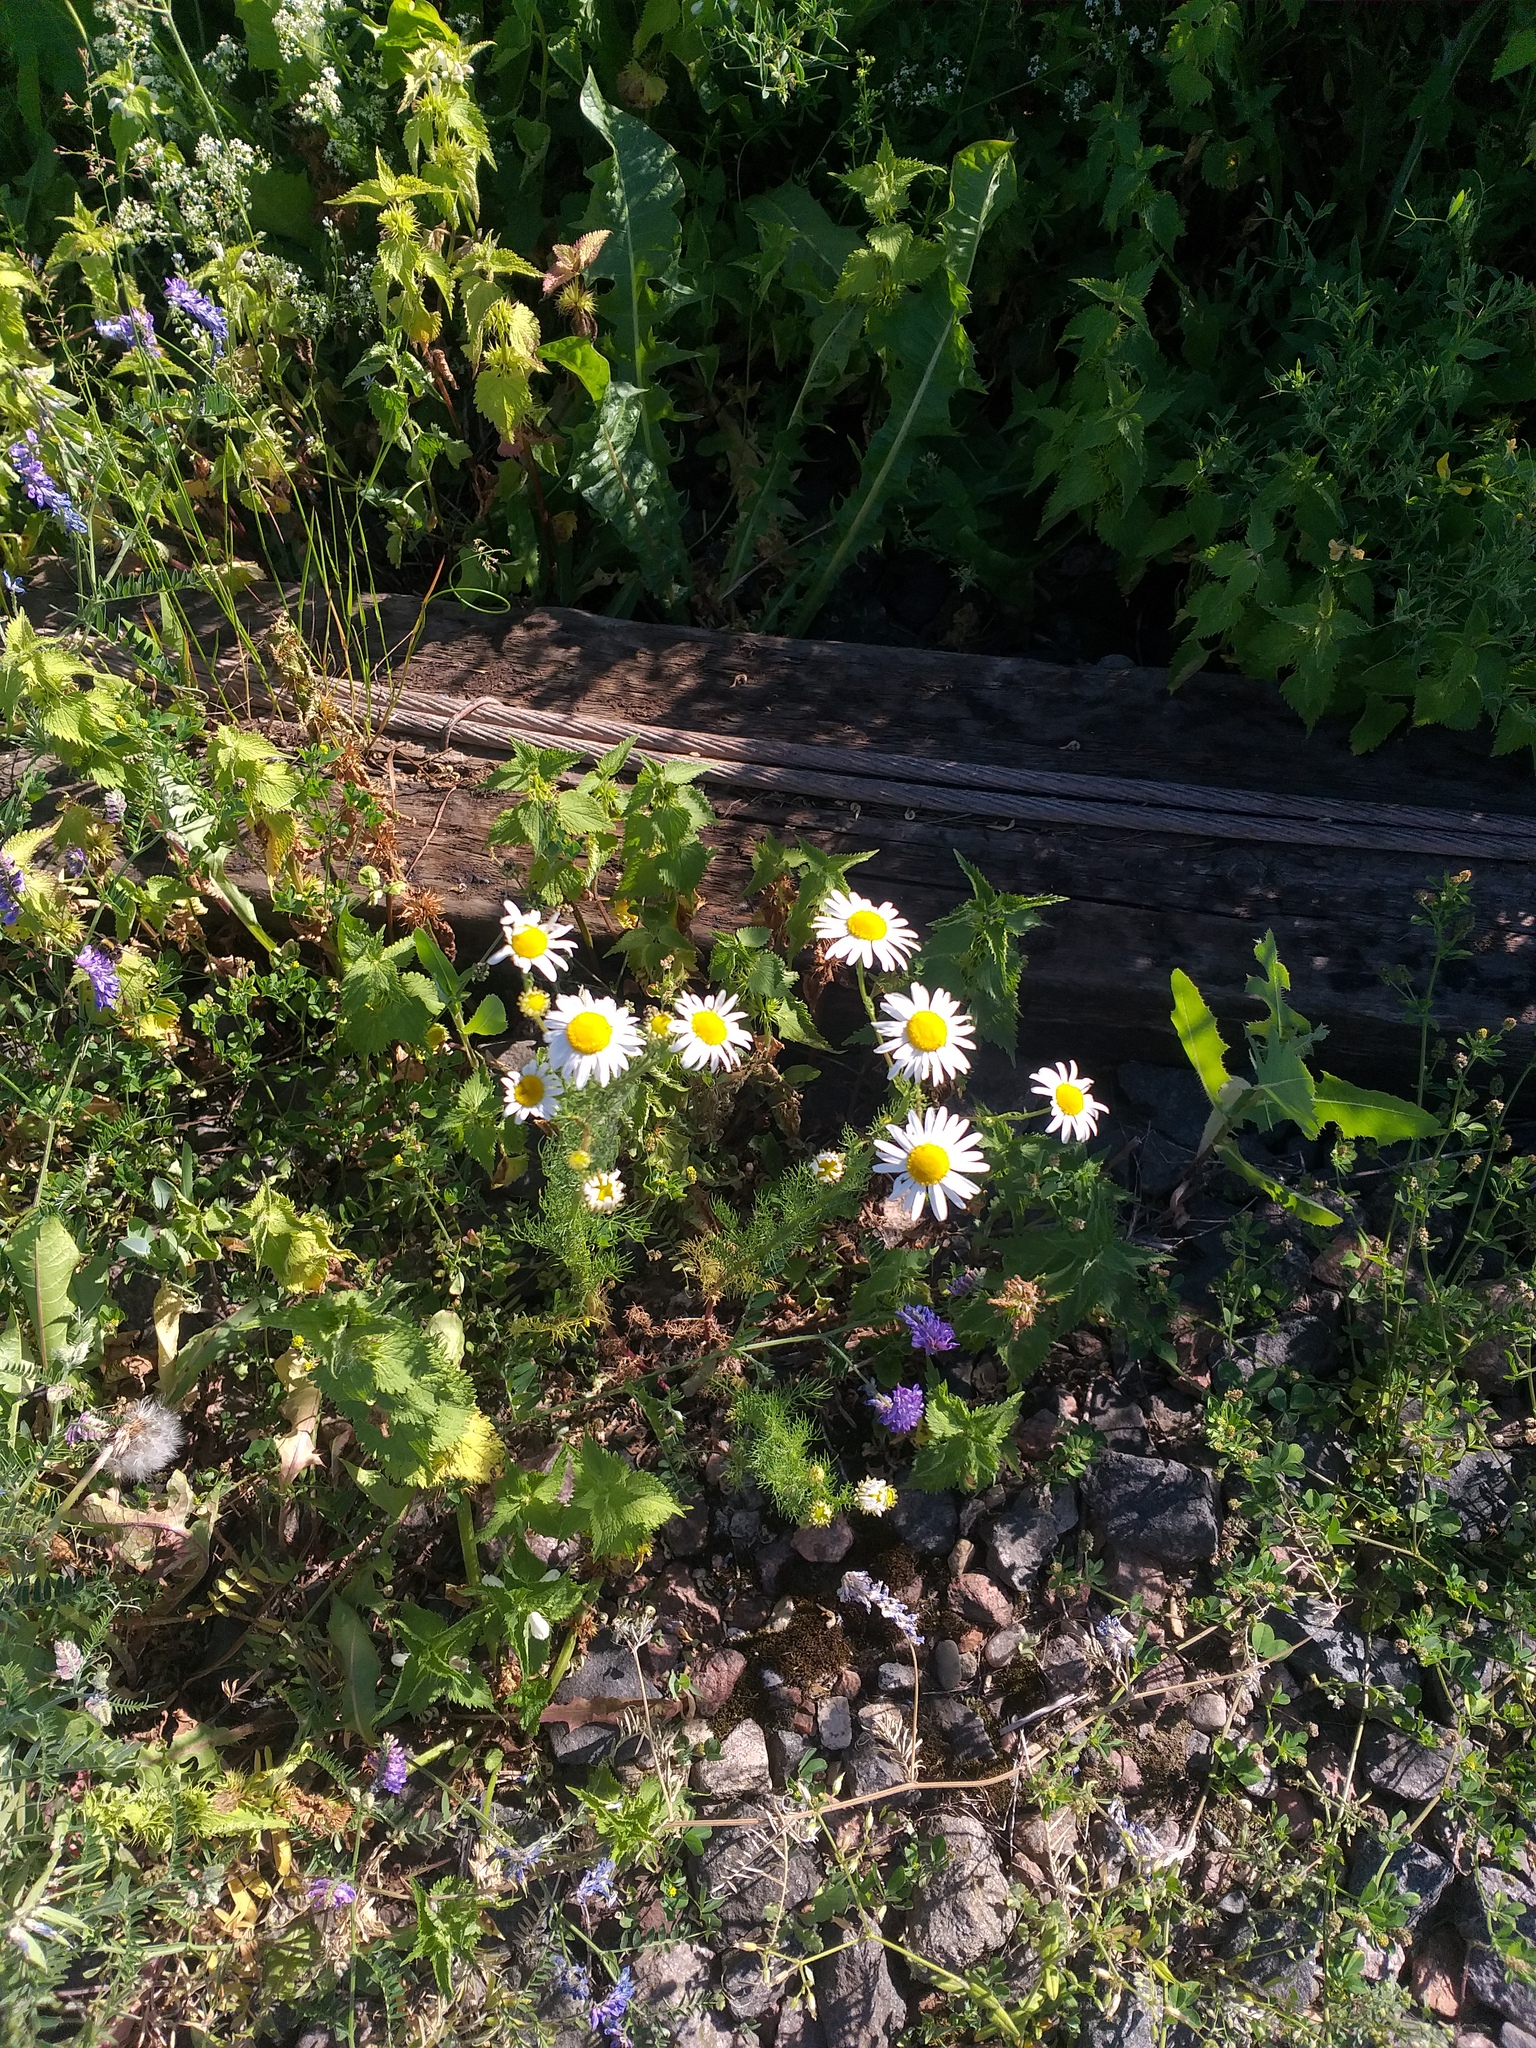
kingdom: Plantae
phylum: Tracheophyta
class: Magnoliopsida
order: Asterales
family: Asteraceae
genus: Tripleurospermum
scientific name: Tripleurospermum inodorum
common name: Scentless mayweed
